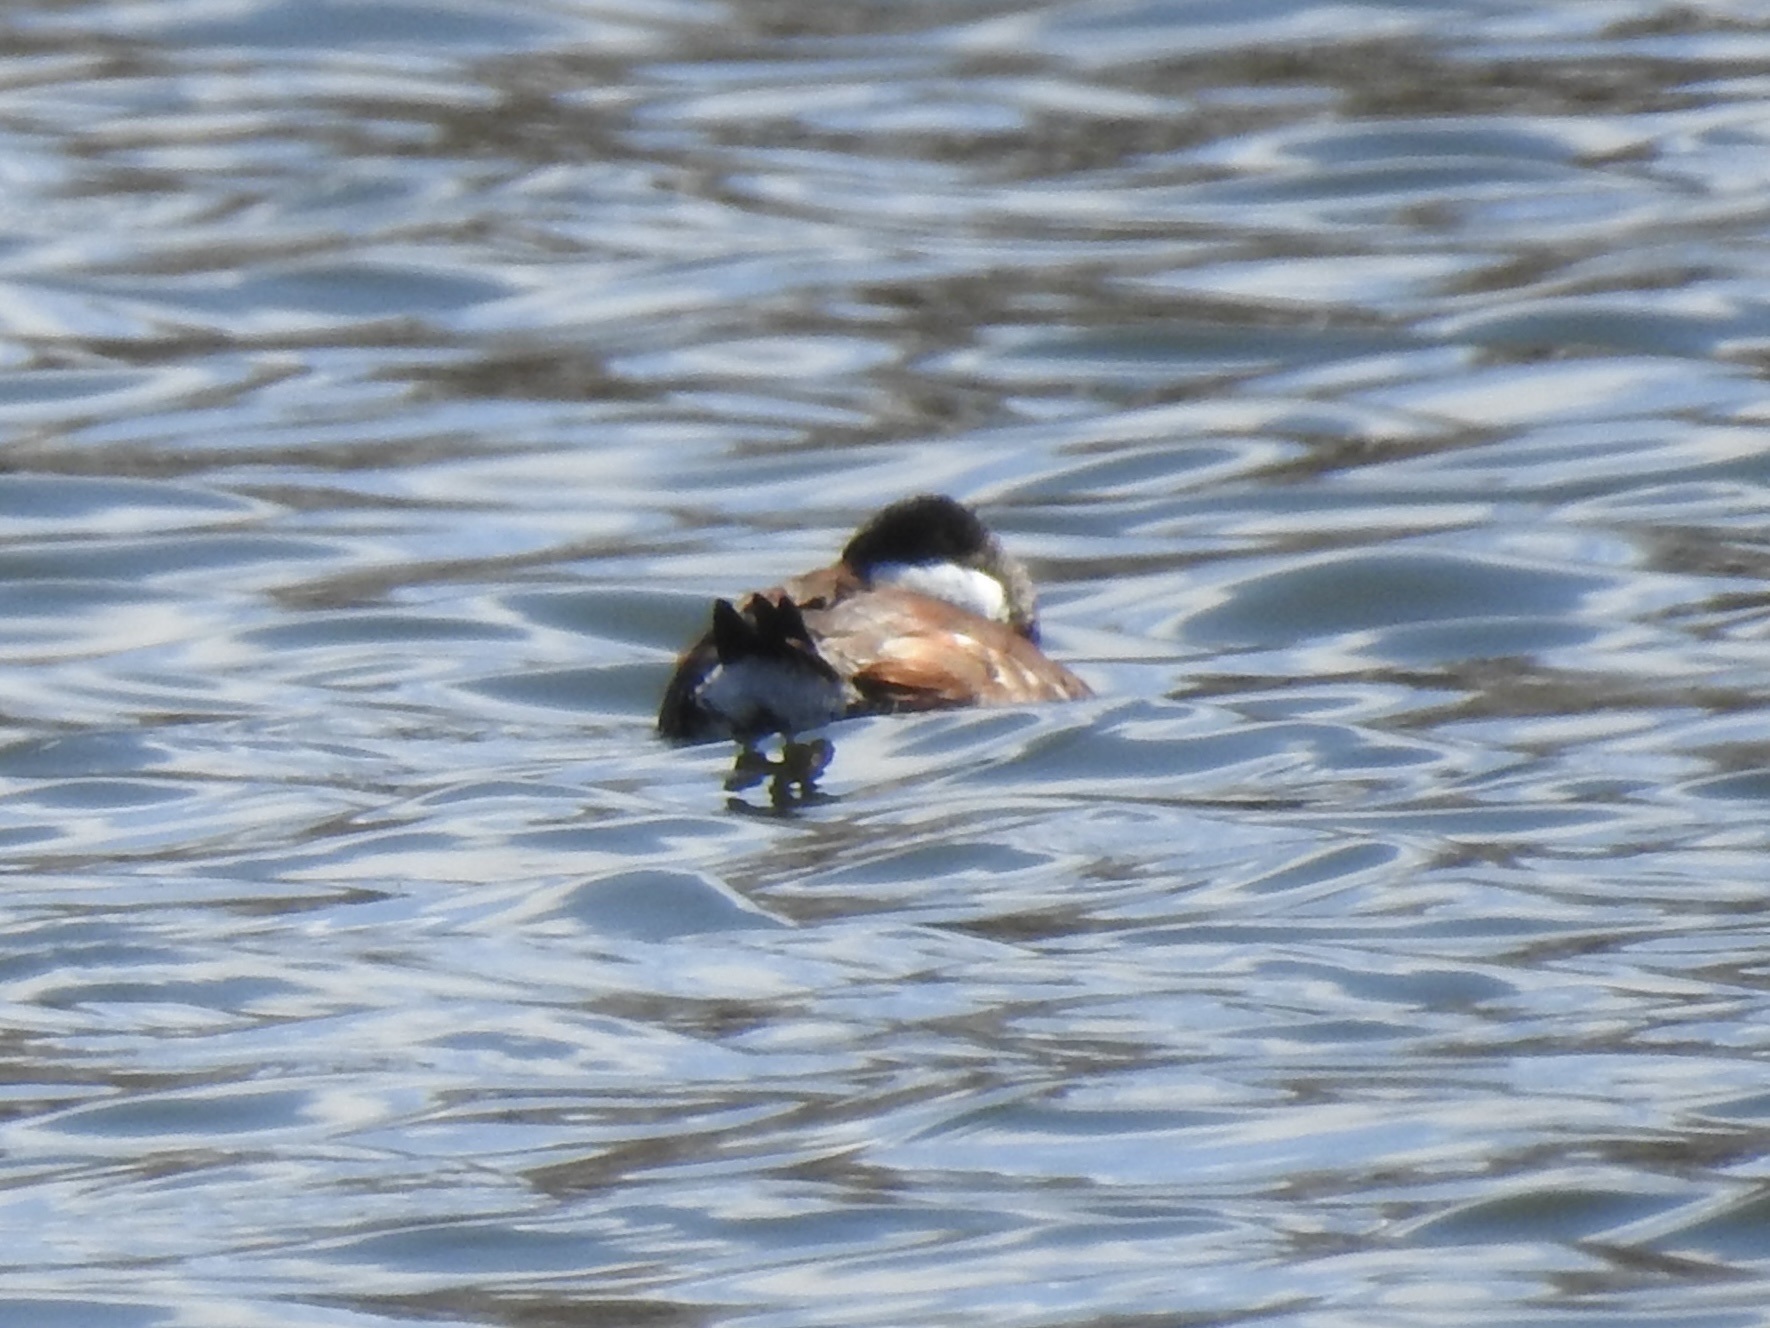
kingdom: Animalia
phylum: Chordata
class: Aves
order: Anseriformes
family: Anatidae
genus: Oxyura
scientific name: Oxyura jamaicensis
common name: Ruddy duck
